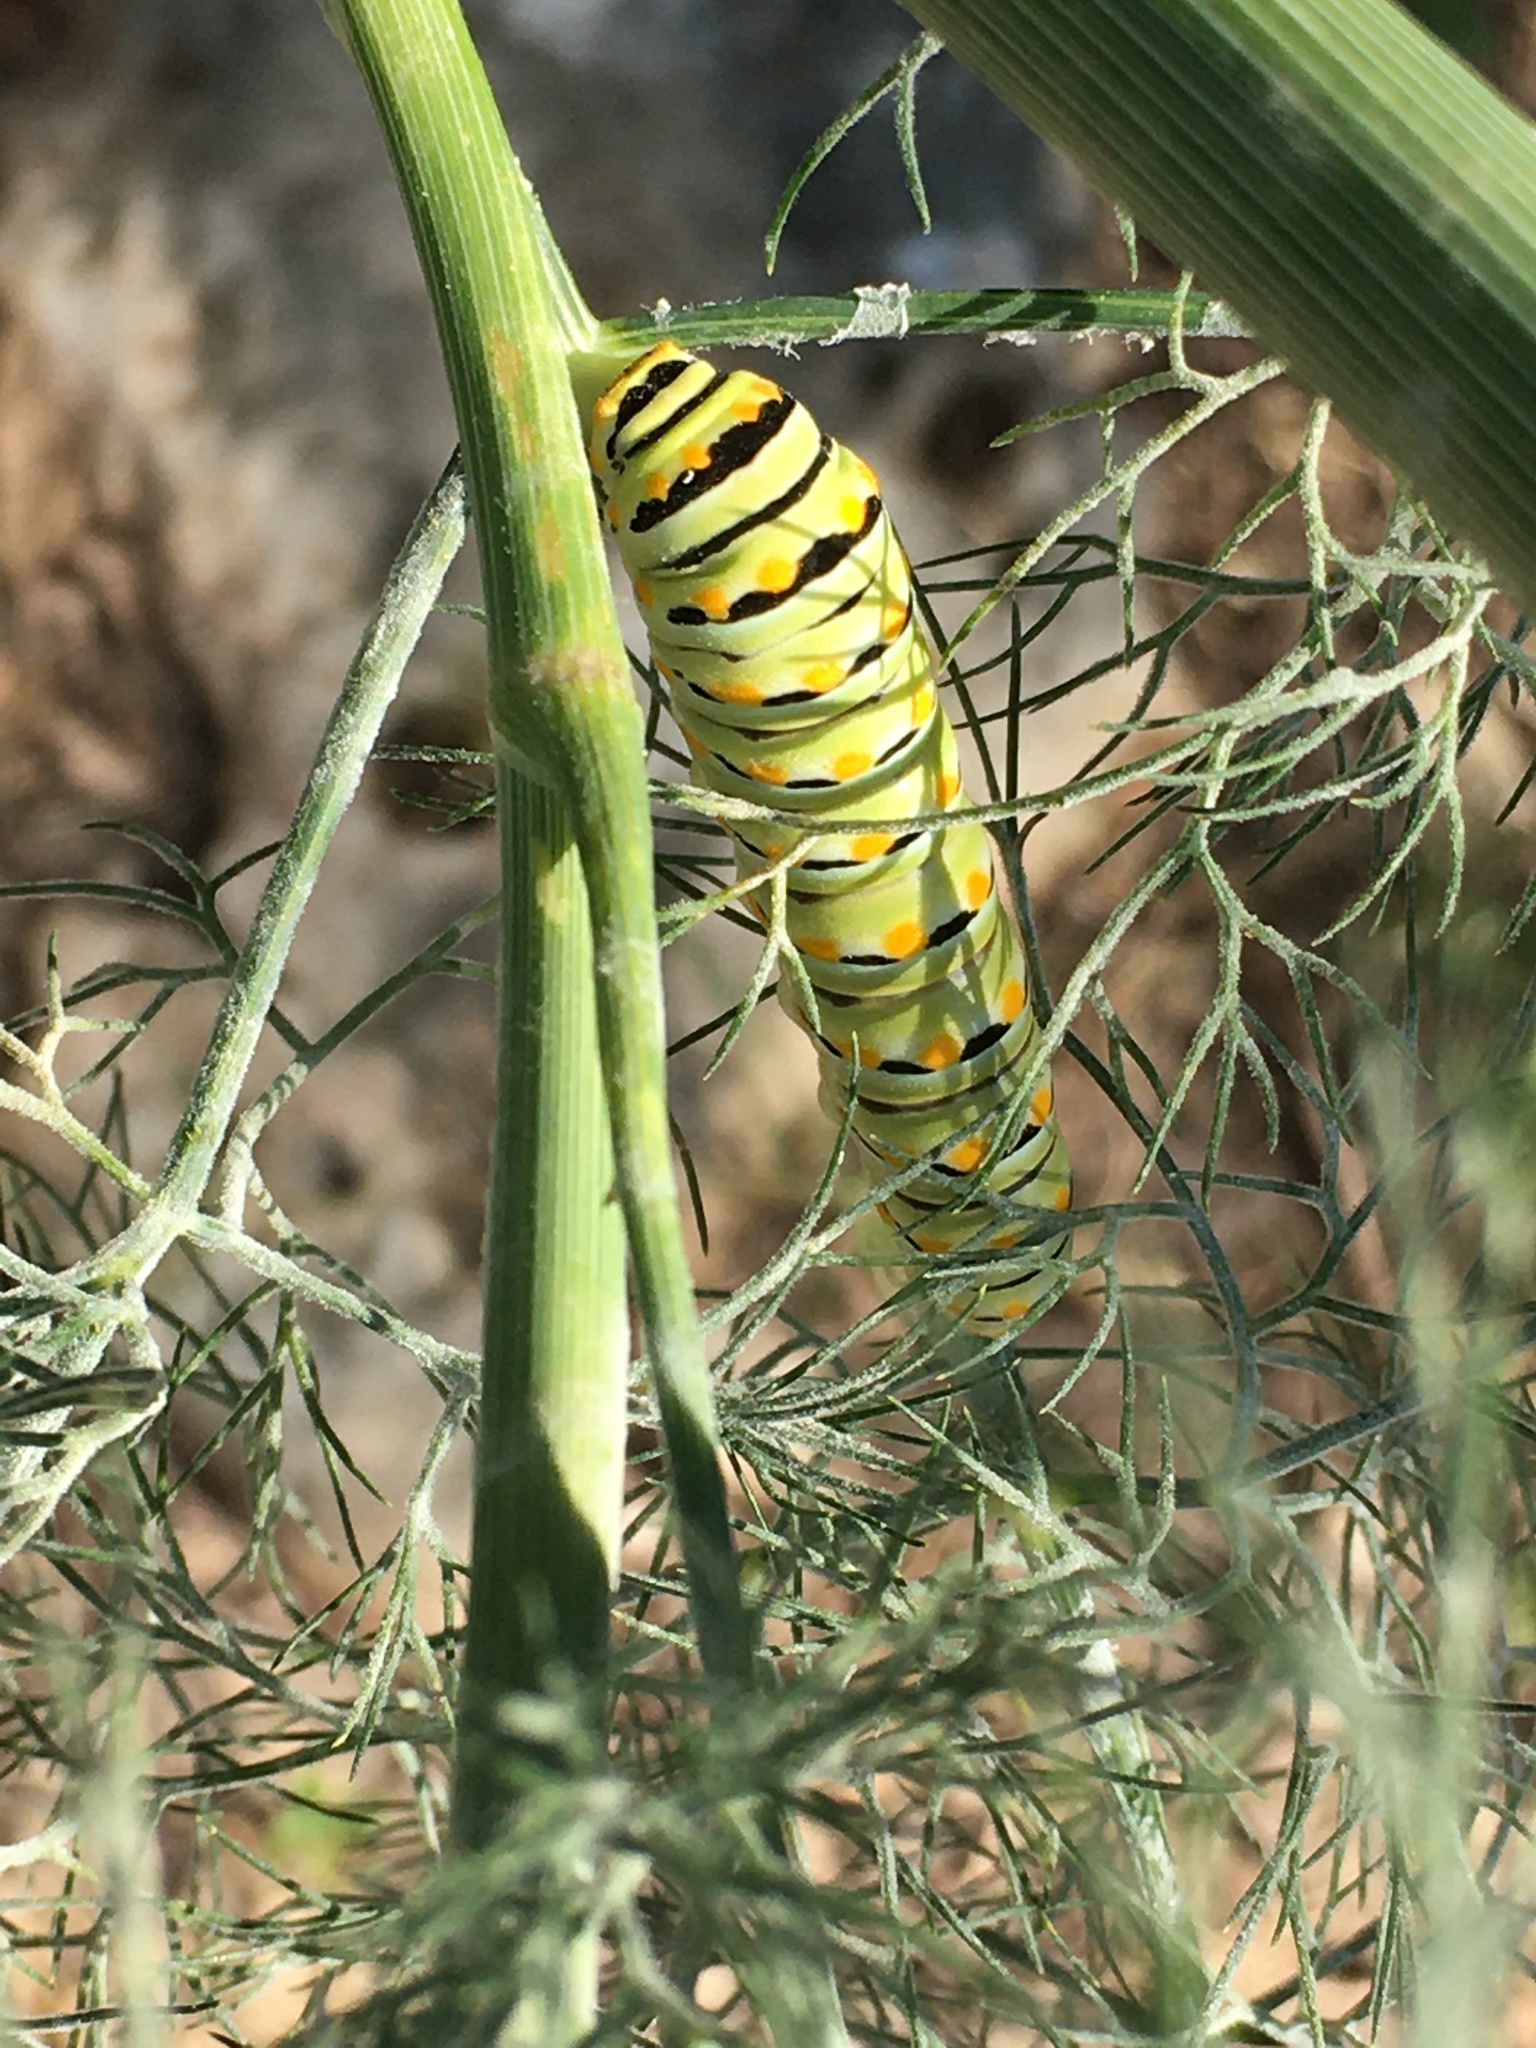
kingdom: Animalia
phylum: Arthropoda
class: Insecta
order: Lepidoptera
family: Papilionidae
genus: Papilio
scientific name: Papilio polyxenes
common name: Black swallowtail
